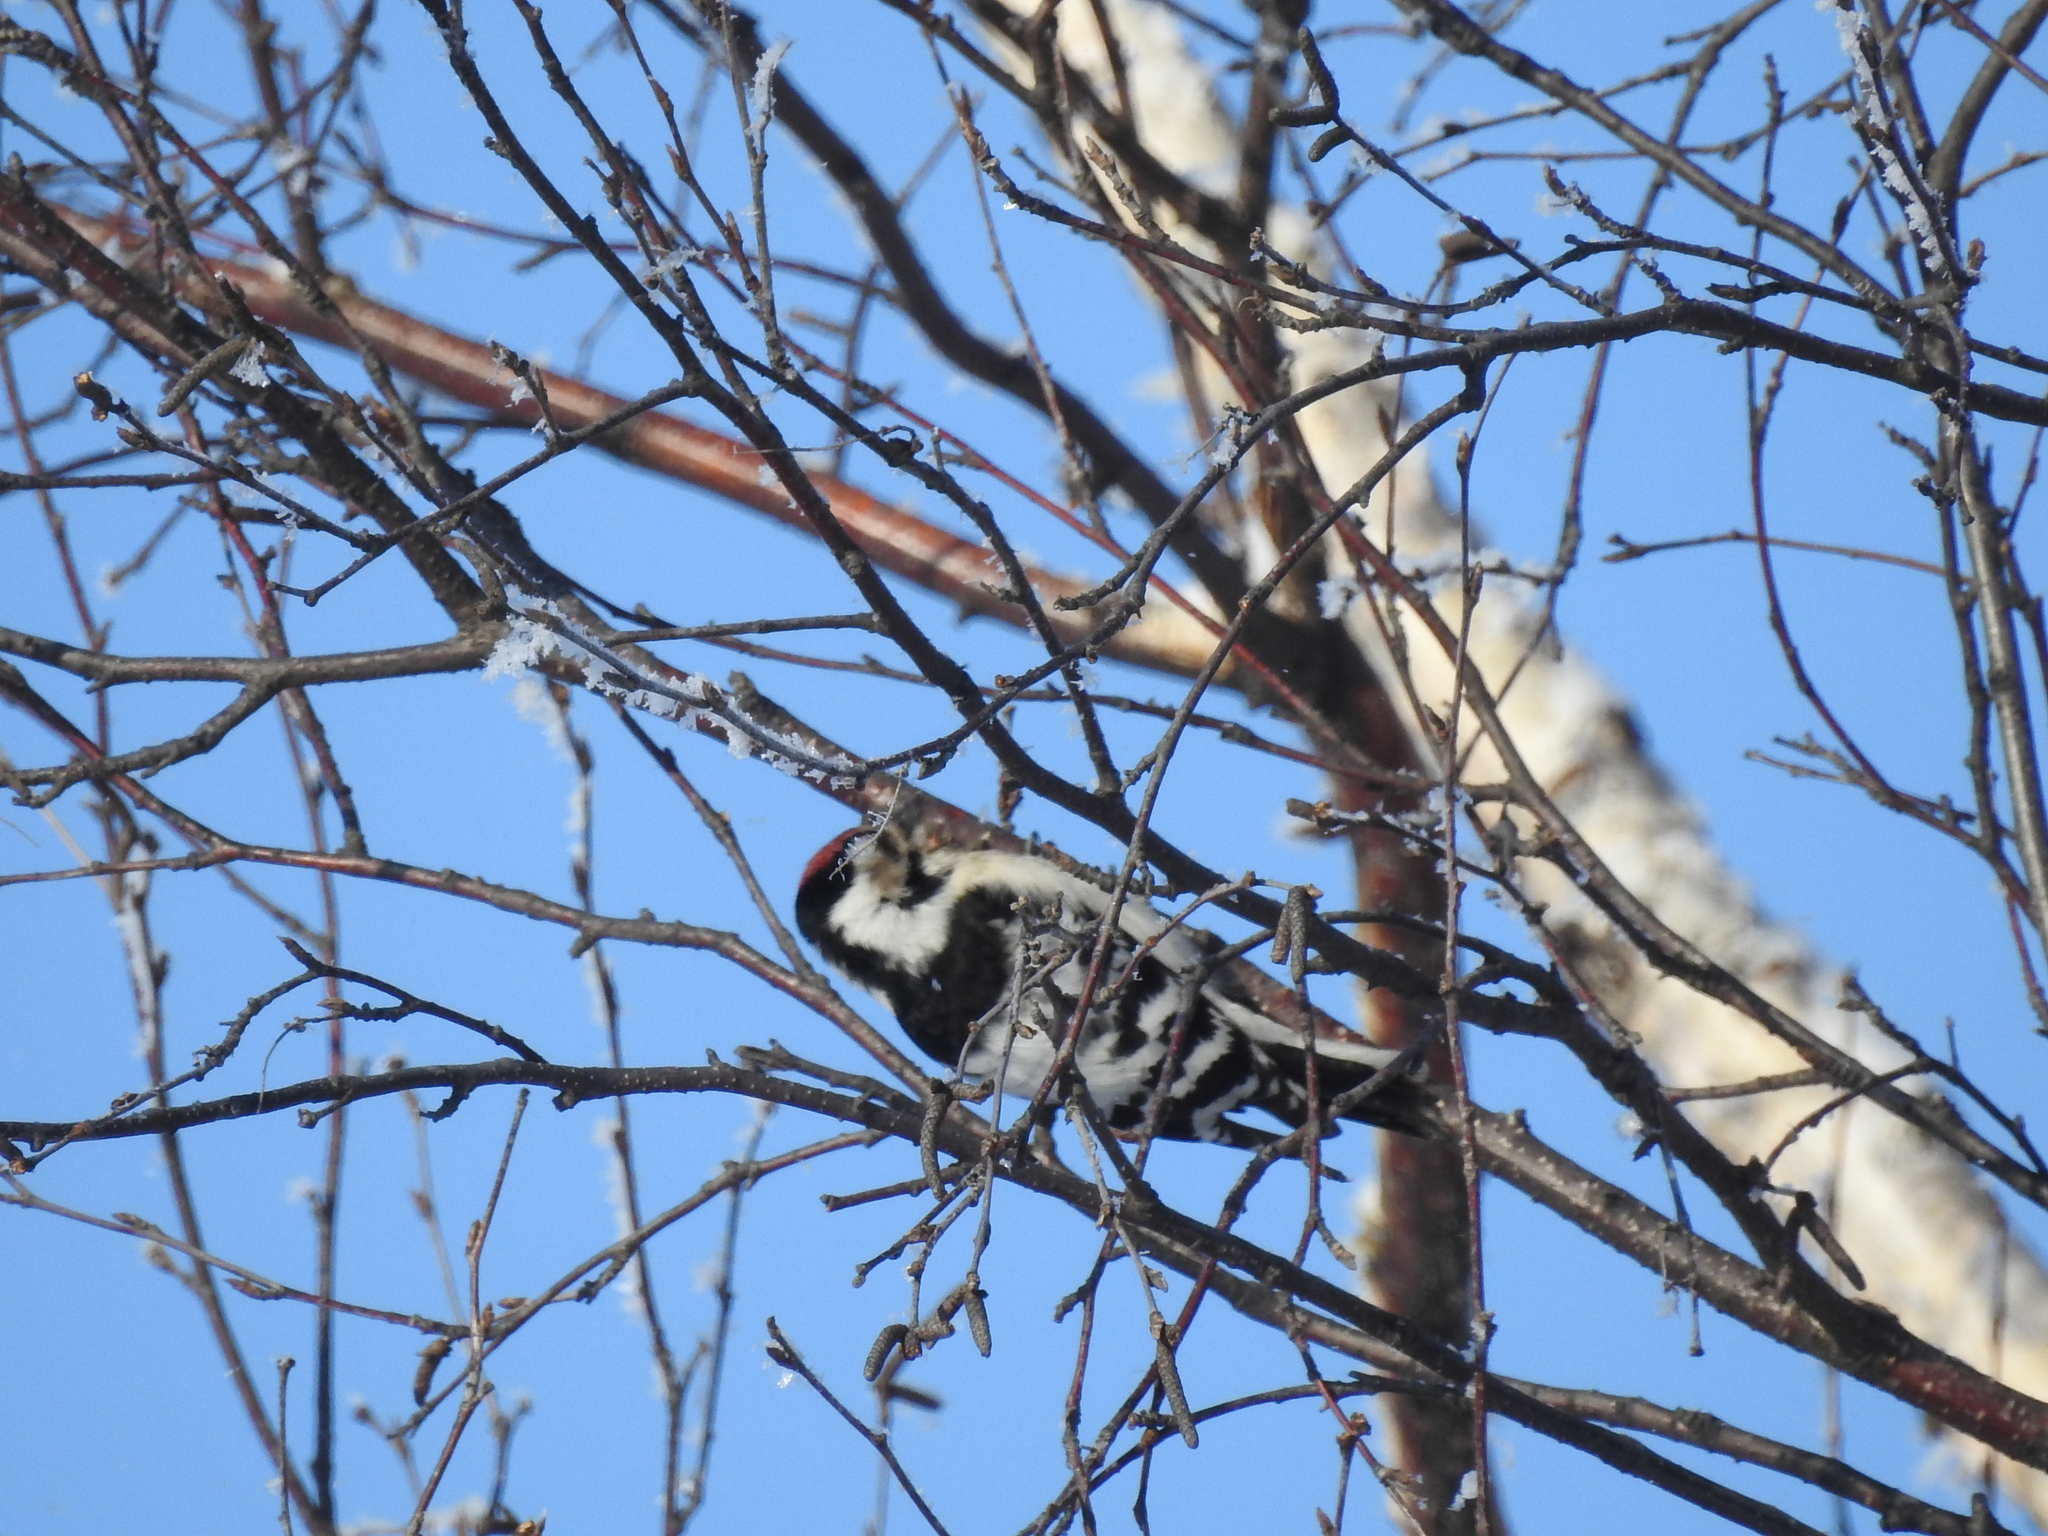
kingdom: Animalia
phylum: Chordata
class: Aves
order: Piciformes
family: Picidae
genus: Dryobates
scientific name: Dryobates minor
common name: Lesser spotted woodpecker
